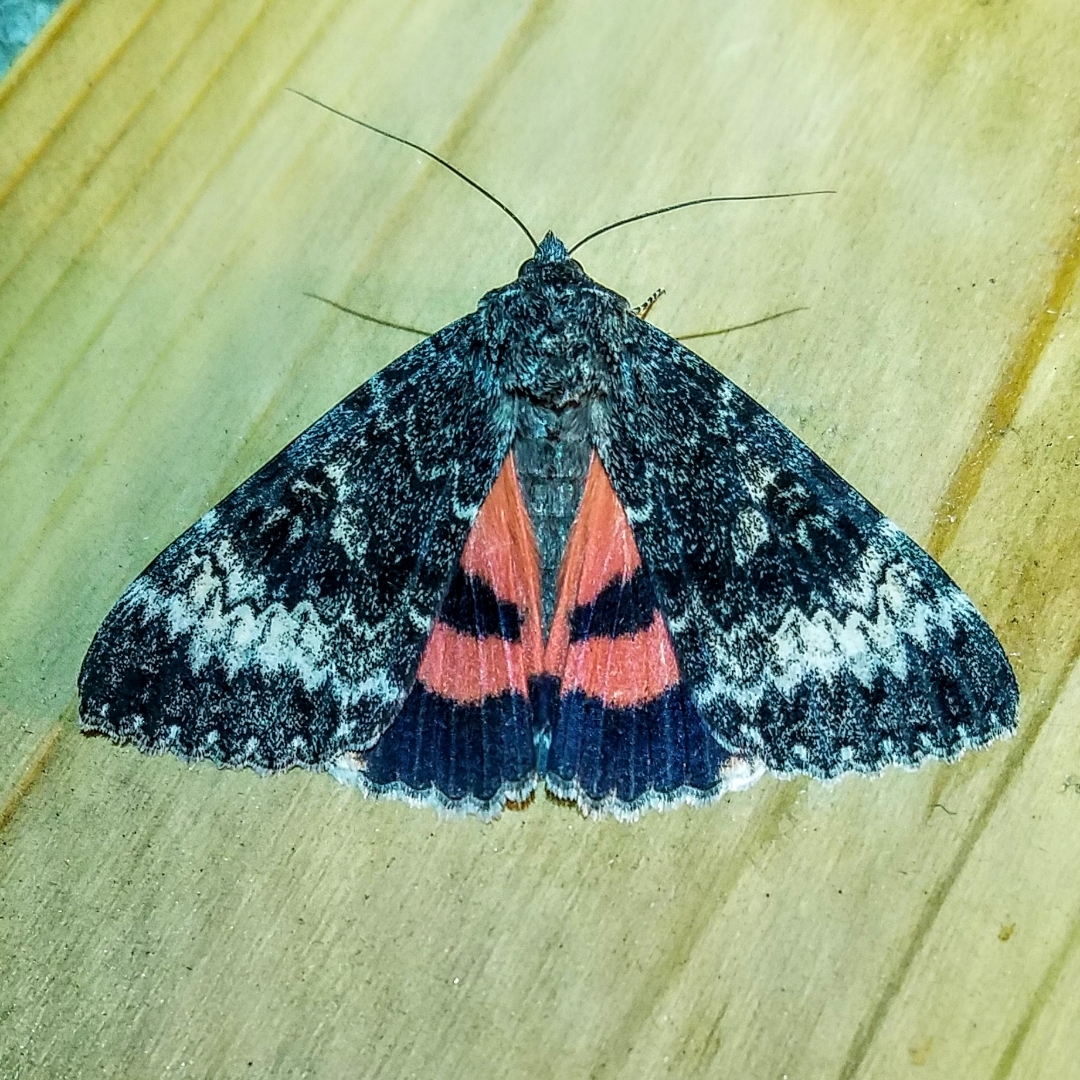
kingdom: Animalia
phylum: Arthropoda
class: Insecta
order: Lepidoptera
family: Erebidae
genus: Catocala
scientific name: Catocala grotiana
